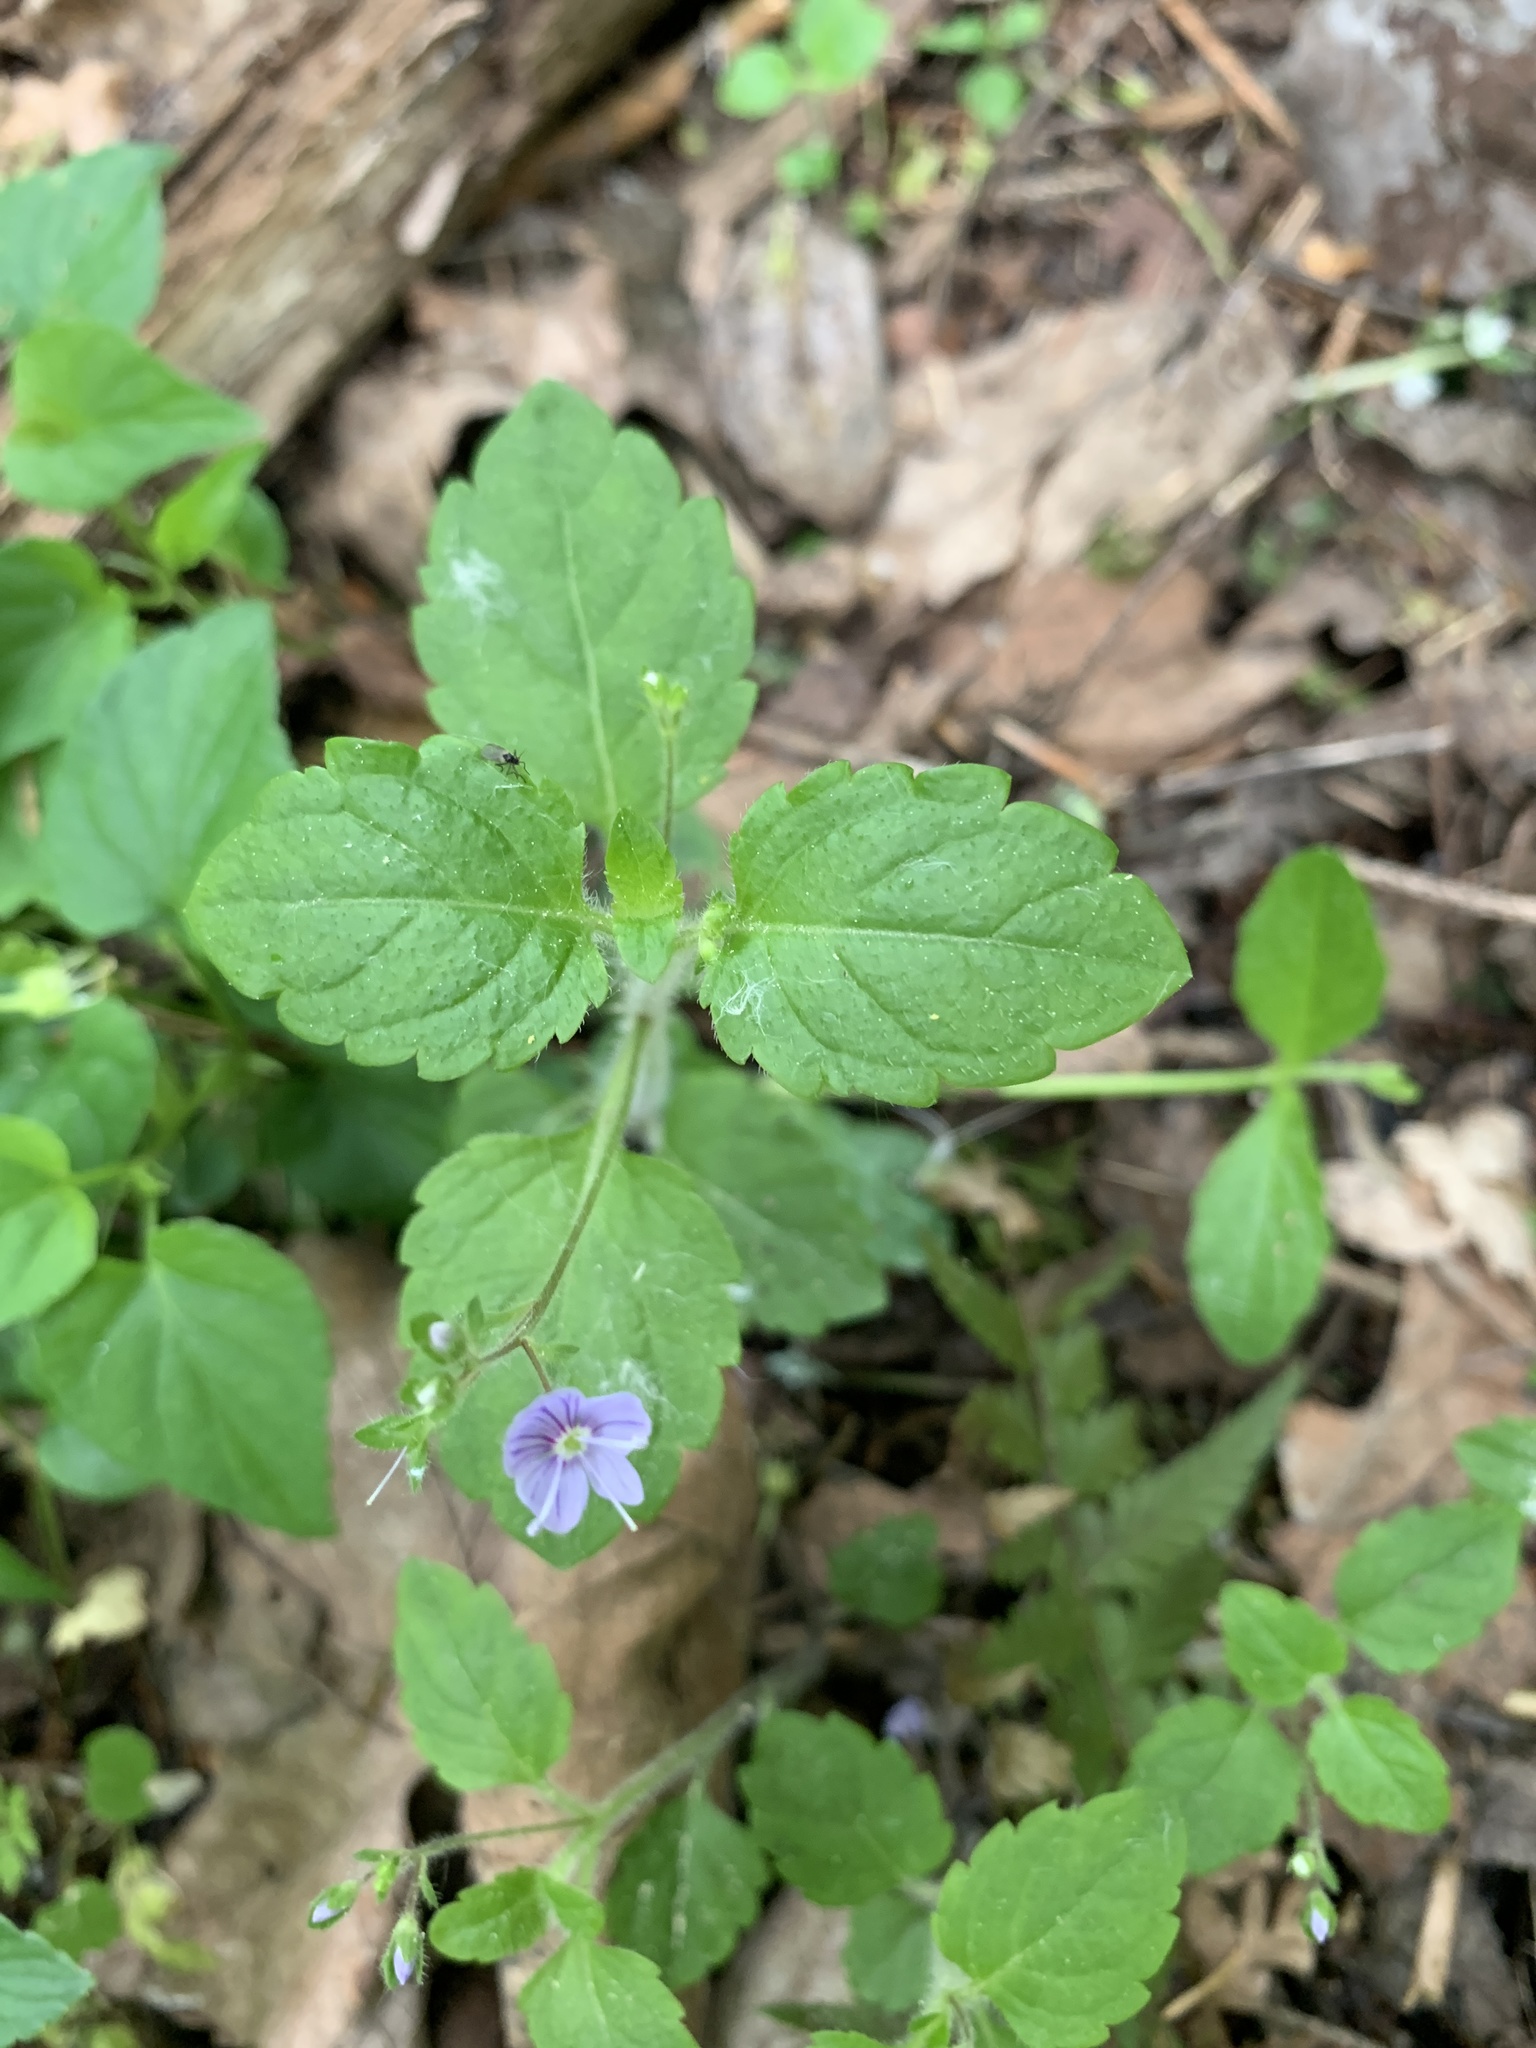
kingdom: Plantae
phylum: Tracheophyta
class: Magnoliopsida
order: Lamiales
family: Plantaginaceae
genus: Veronica
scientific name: Veronica montana
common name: Wood speedwell
